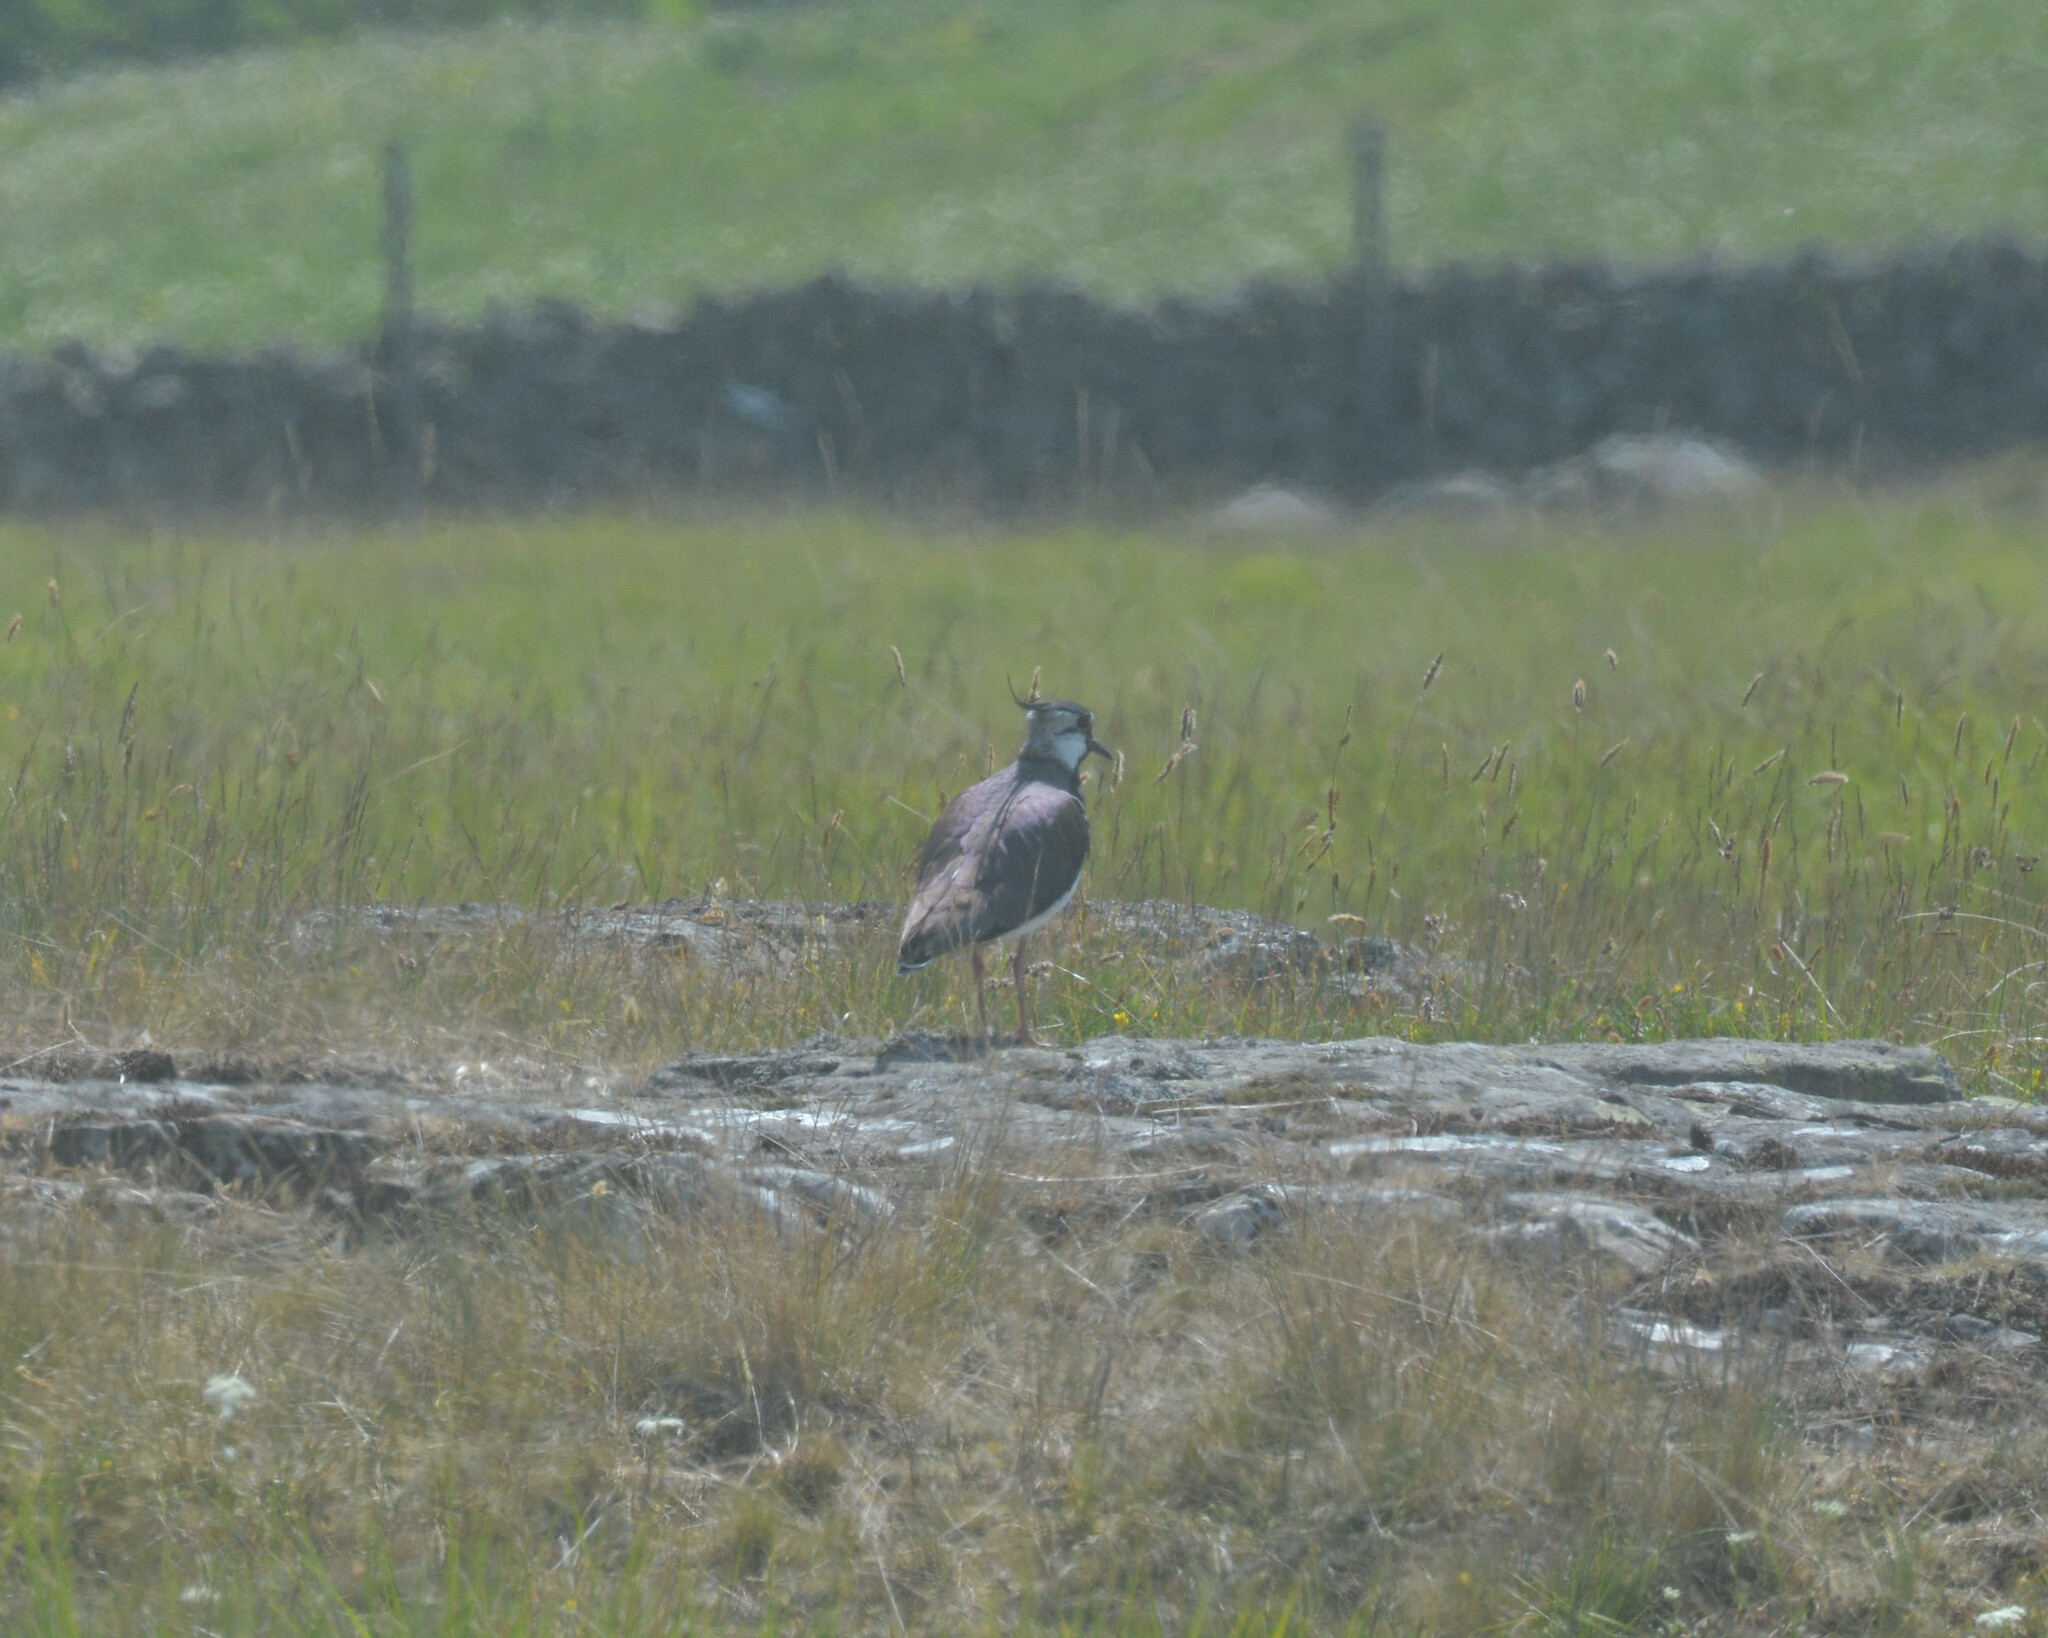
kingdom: Animalia
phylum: Chordata
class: Aves
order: Charadriiformes
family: Charadriidae
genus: Vanellus
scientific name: Vanellus vanellus
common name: Northern lapwing
